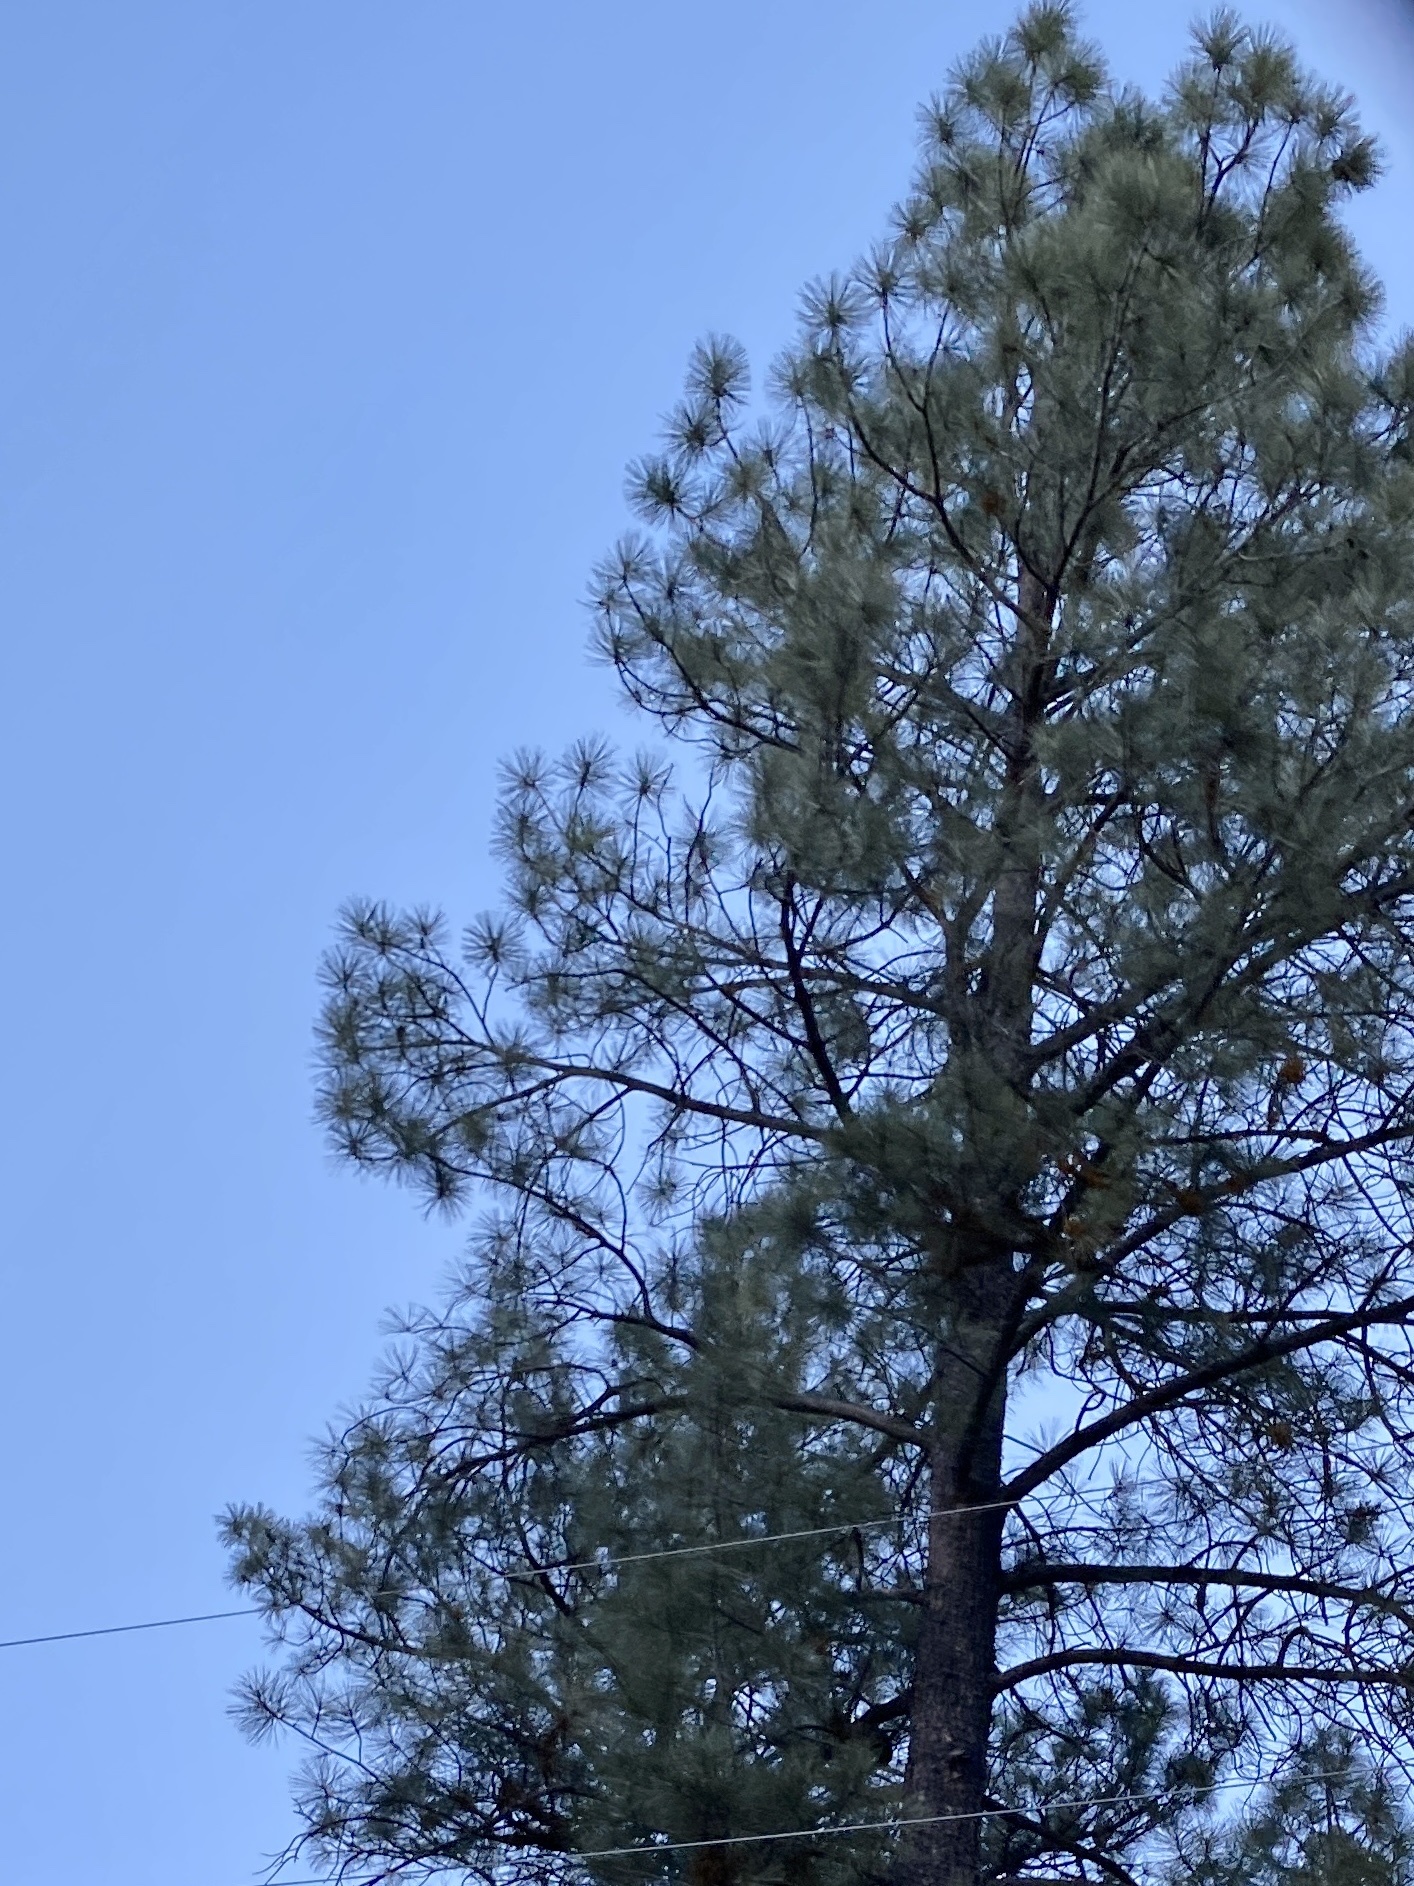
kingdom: Plantae
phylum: Tracheophyta
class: Pinopsida
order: Pinales
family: Pinaceae
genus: Pinus
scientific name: Pinus ponderosa
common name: Western yellow-pine
